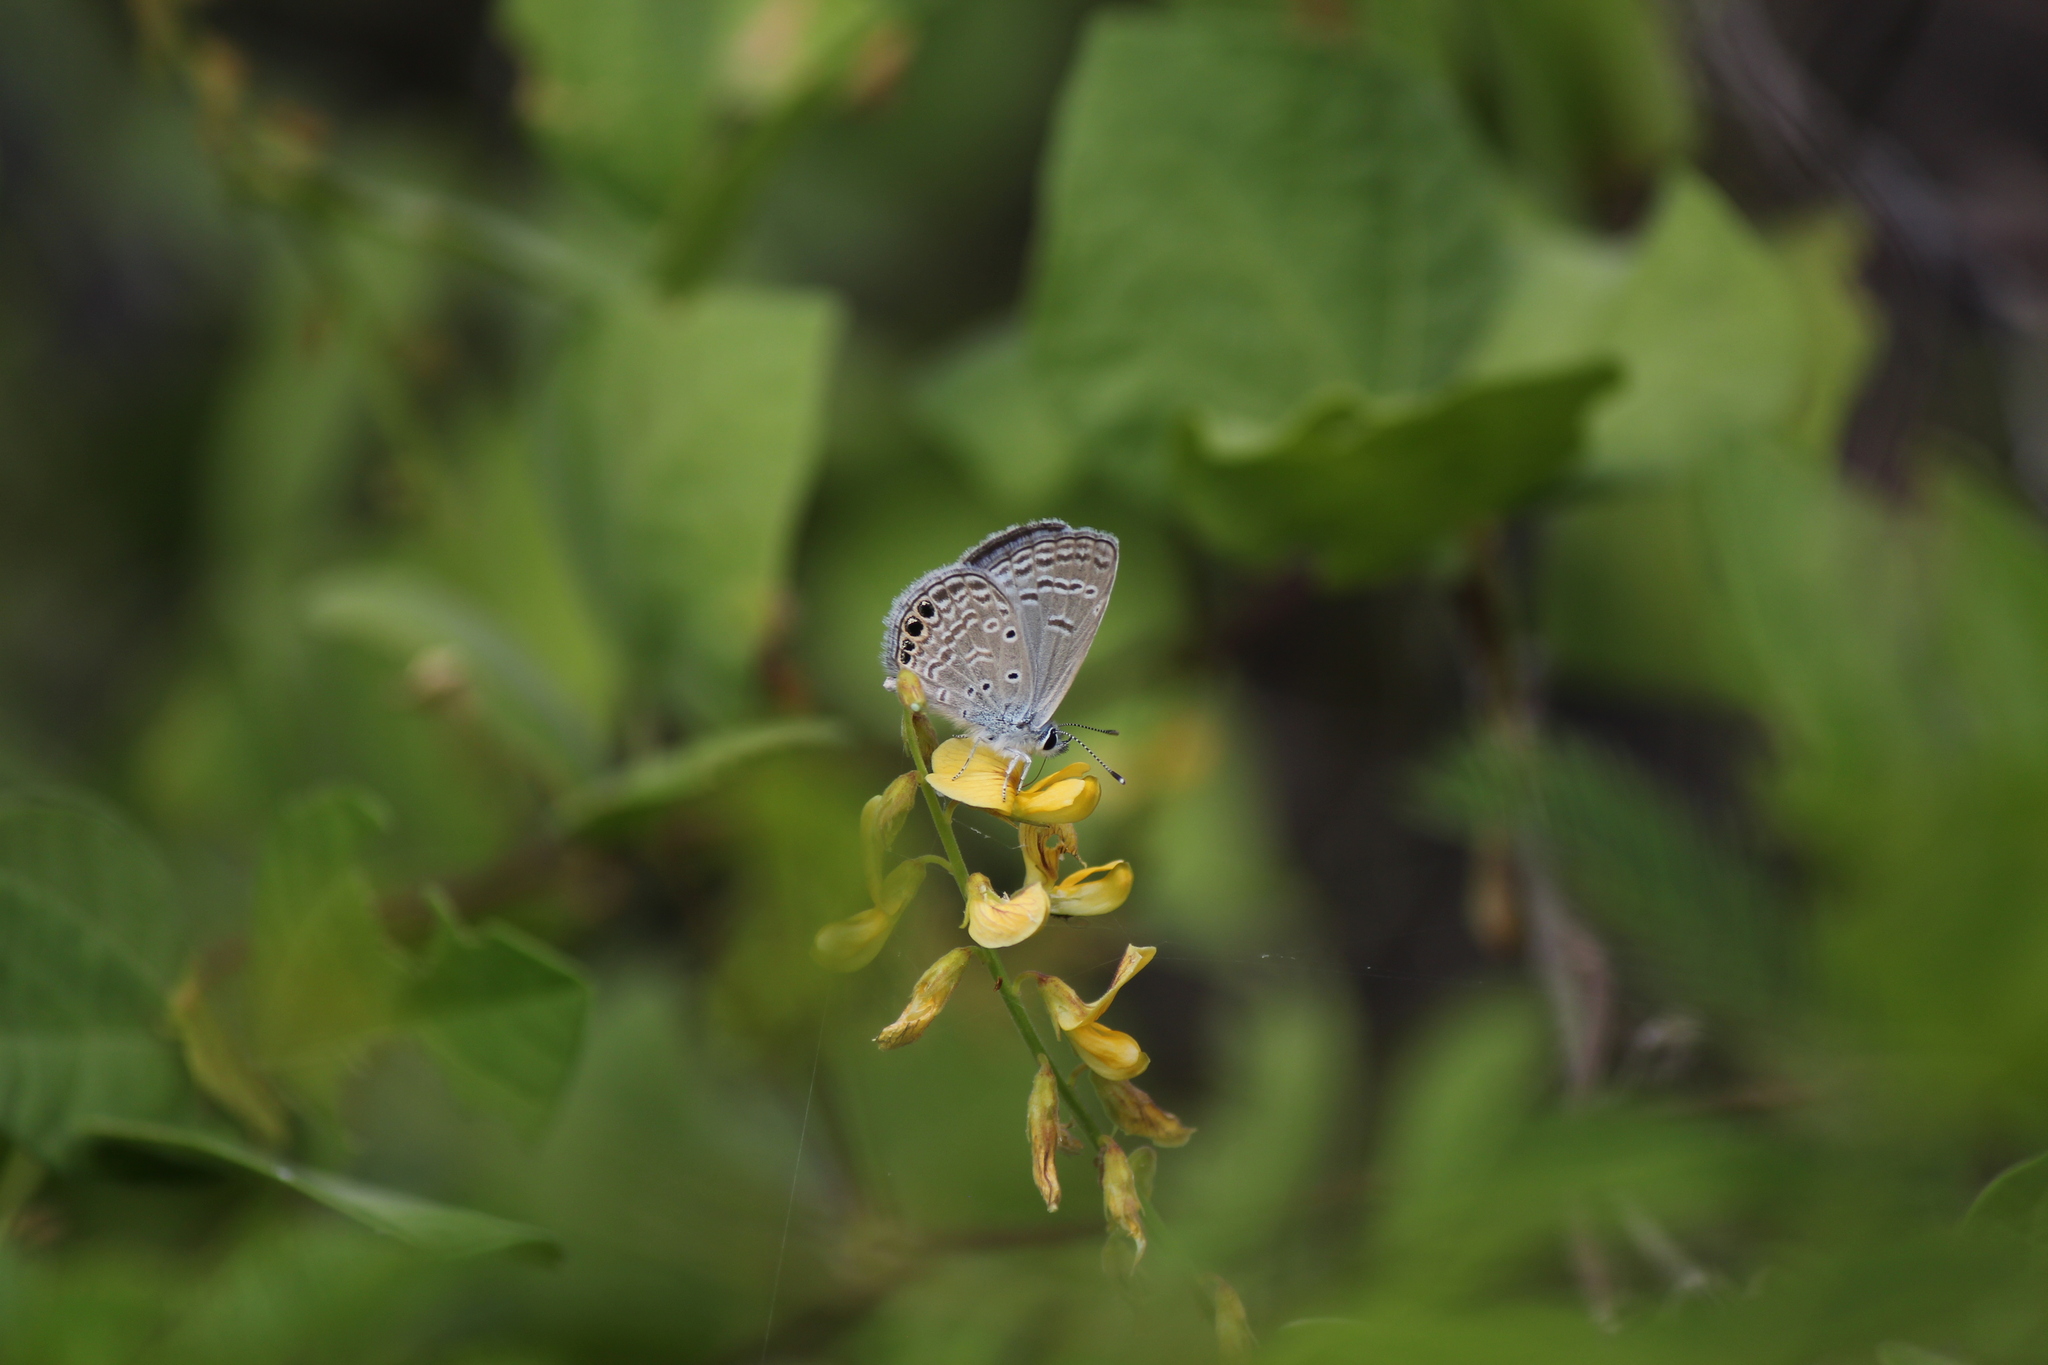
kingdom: Animalia
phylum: Arthropoda
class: Insecta
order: Lepidoptera
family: Lycaenidae
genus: Hemiargus
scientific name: Hemiargus ramon
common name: Ramon blue
